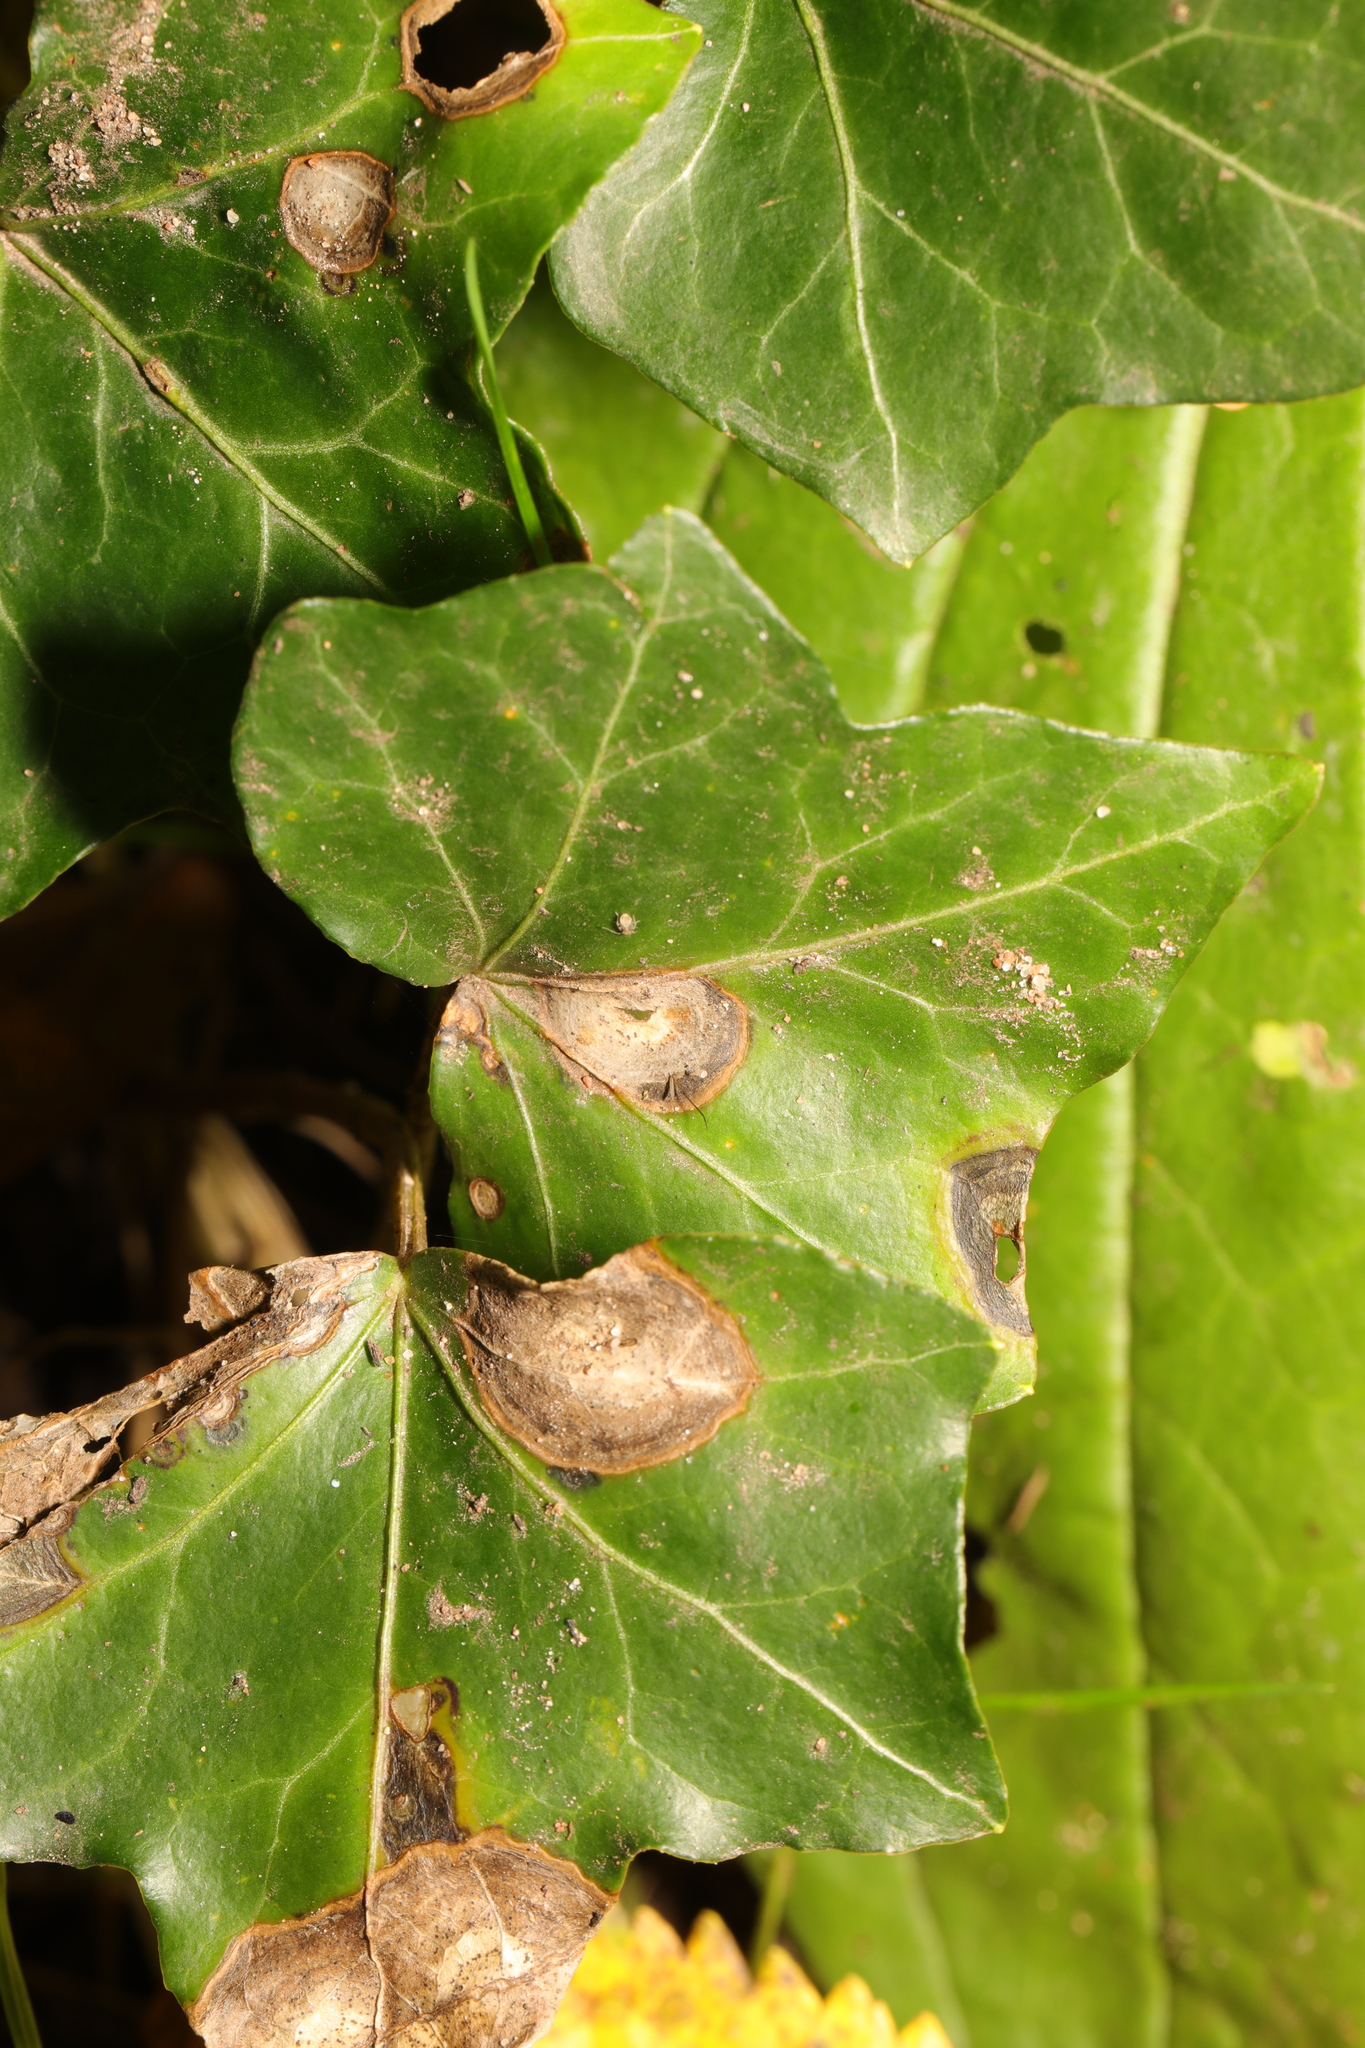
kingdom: Fungi
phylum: Ascomycota
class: Dothideomycetes
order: Pleosporales
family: Didymellaceae
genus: Boeremia
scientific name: Boeremia hedericola
